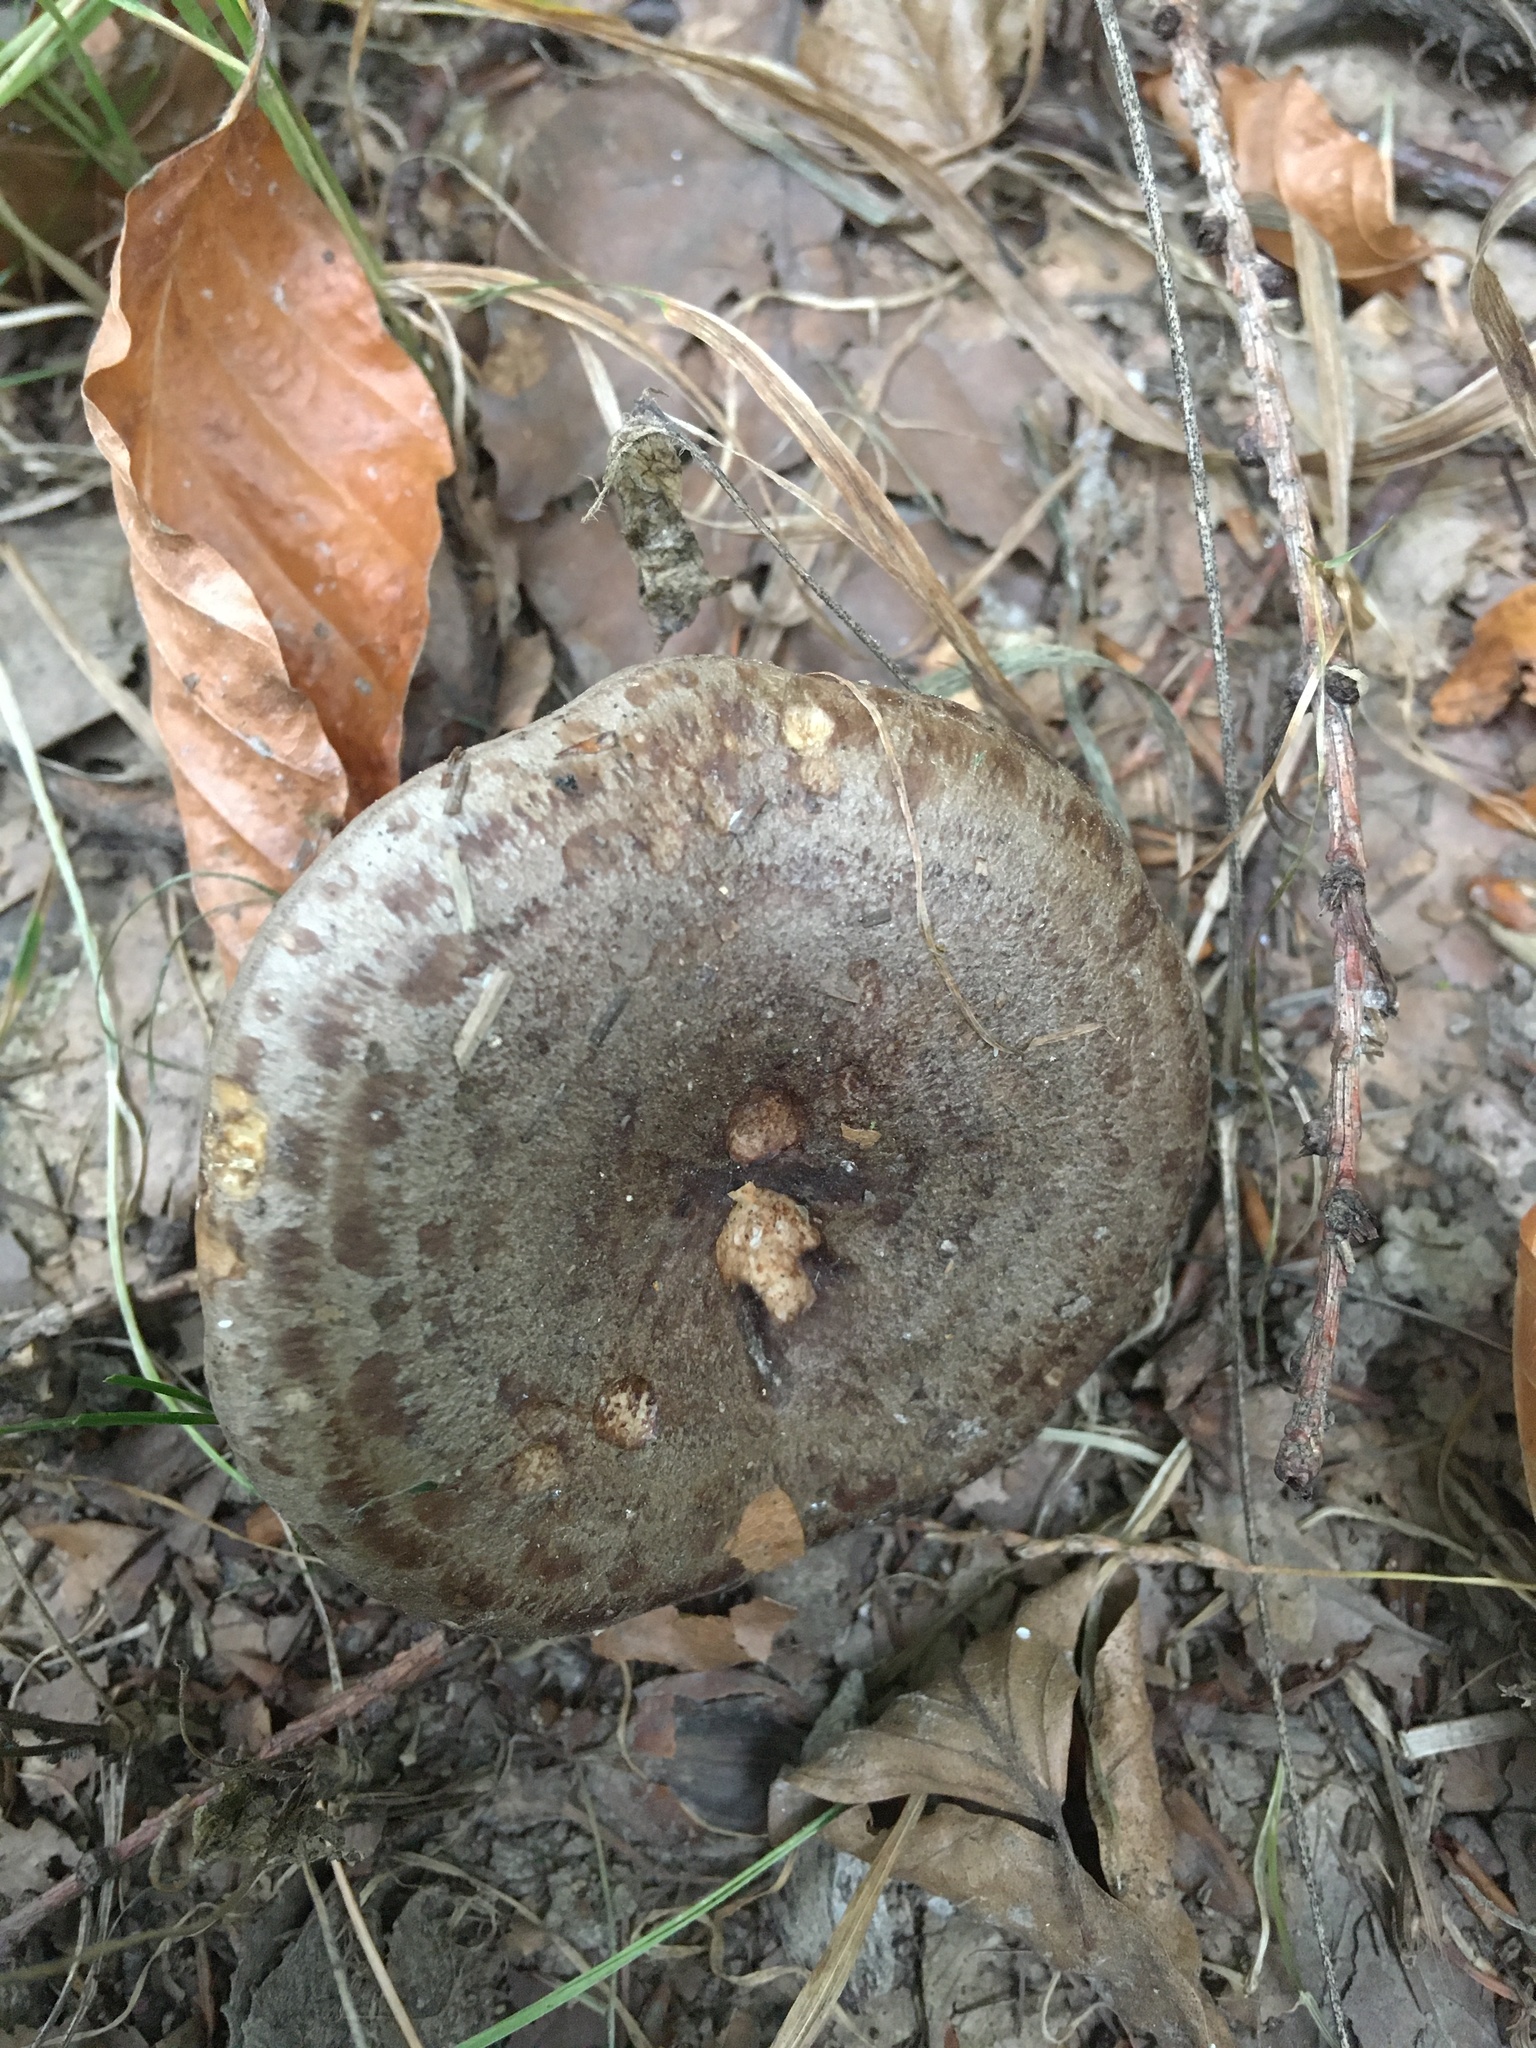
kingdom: Fungi
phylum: Basidiomycota
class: Agaricomycetes
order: Russulales
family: Russulaceae
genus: Lactarius
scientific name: Lactarius blennius
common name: Beech milkcap
